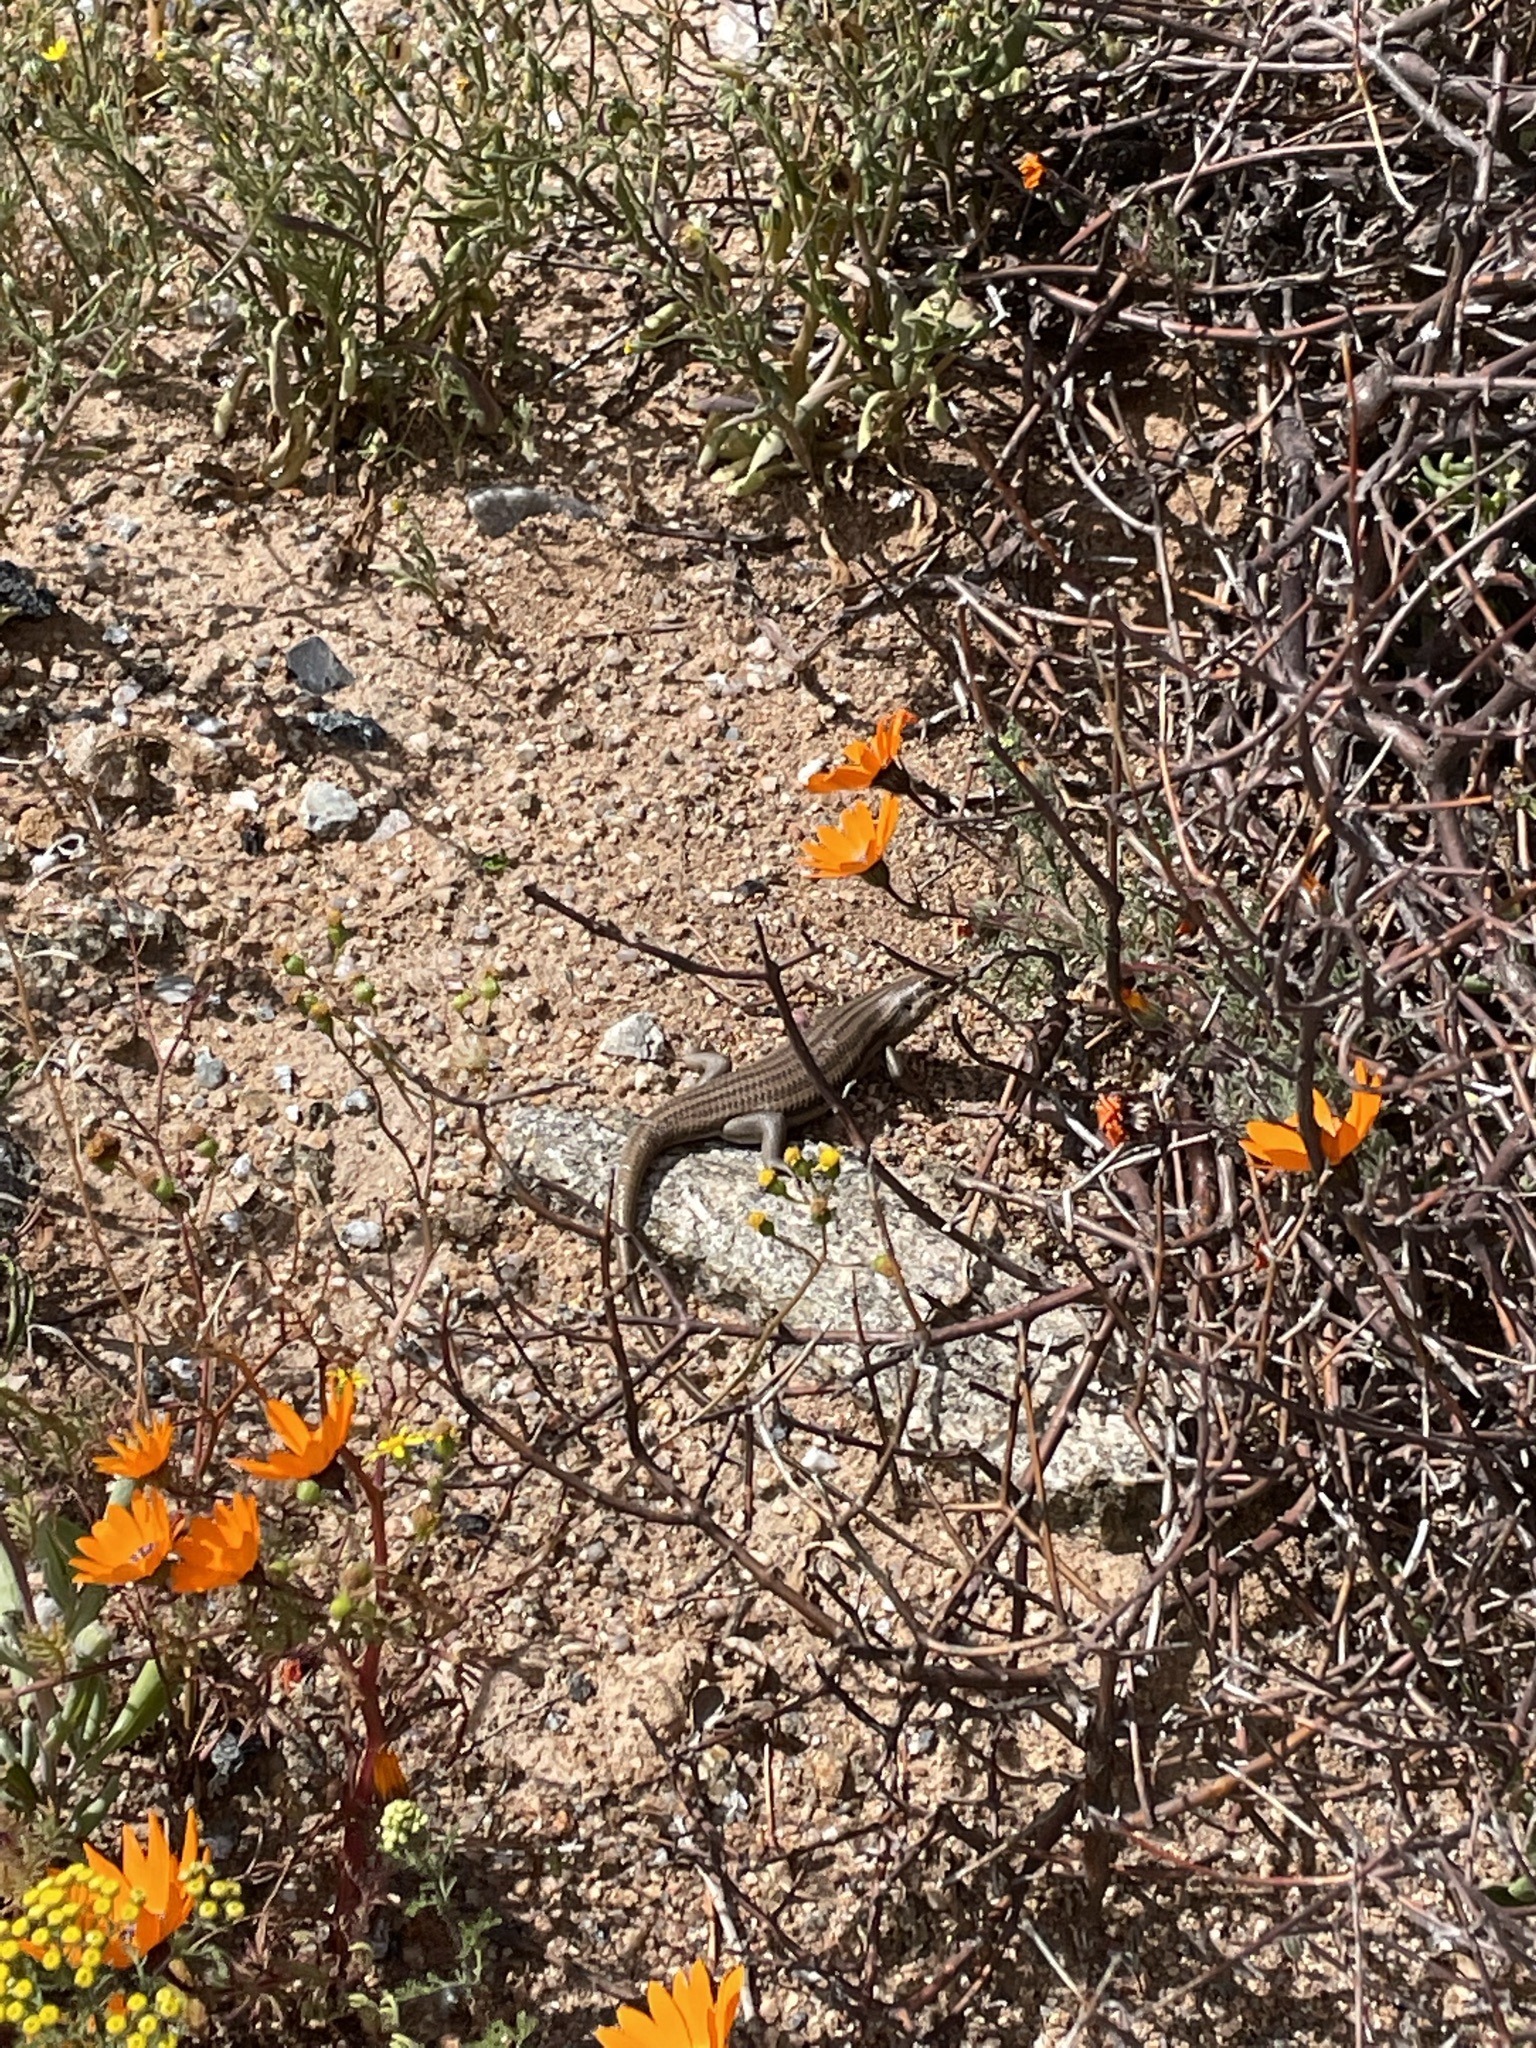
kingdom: Animalia
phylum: Chordata
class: Squamata
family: Scincidae
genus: Trachylepis
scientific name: Trachylepis sulcata
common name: Western rock skink
